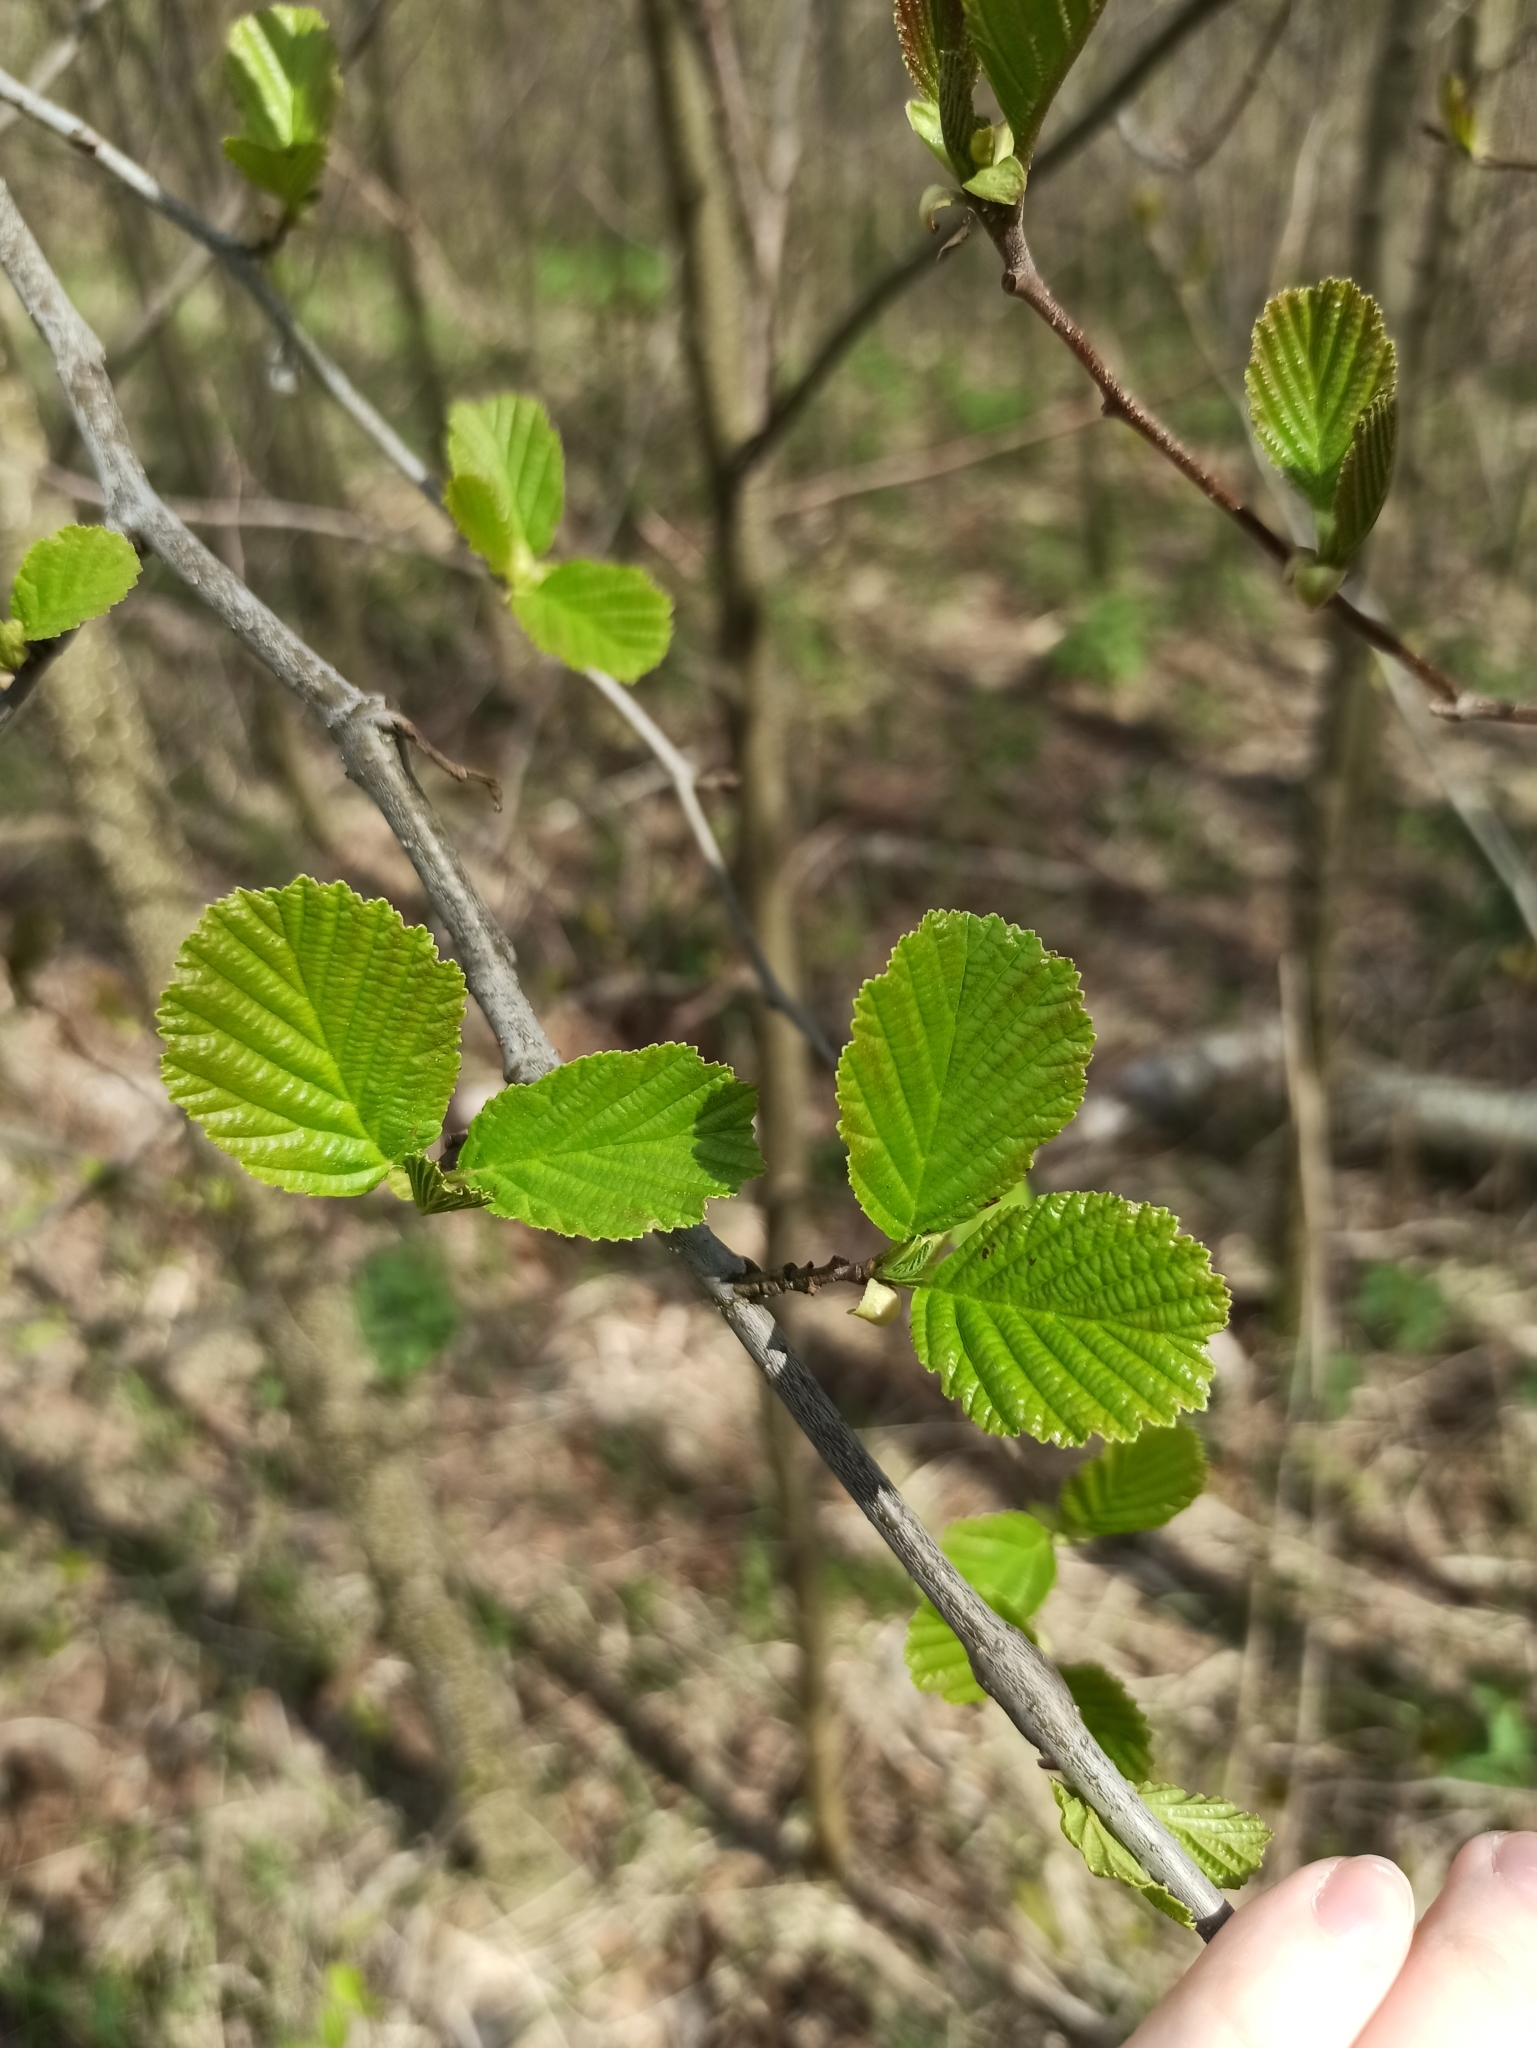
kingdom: Plantae
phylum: Tracheophyta
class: Magnoliopsida
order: Fagales
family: Betulaceae
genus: Alnus
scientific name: Alnus glutinosa
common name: Black alder
